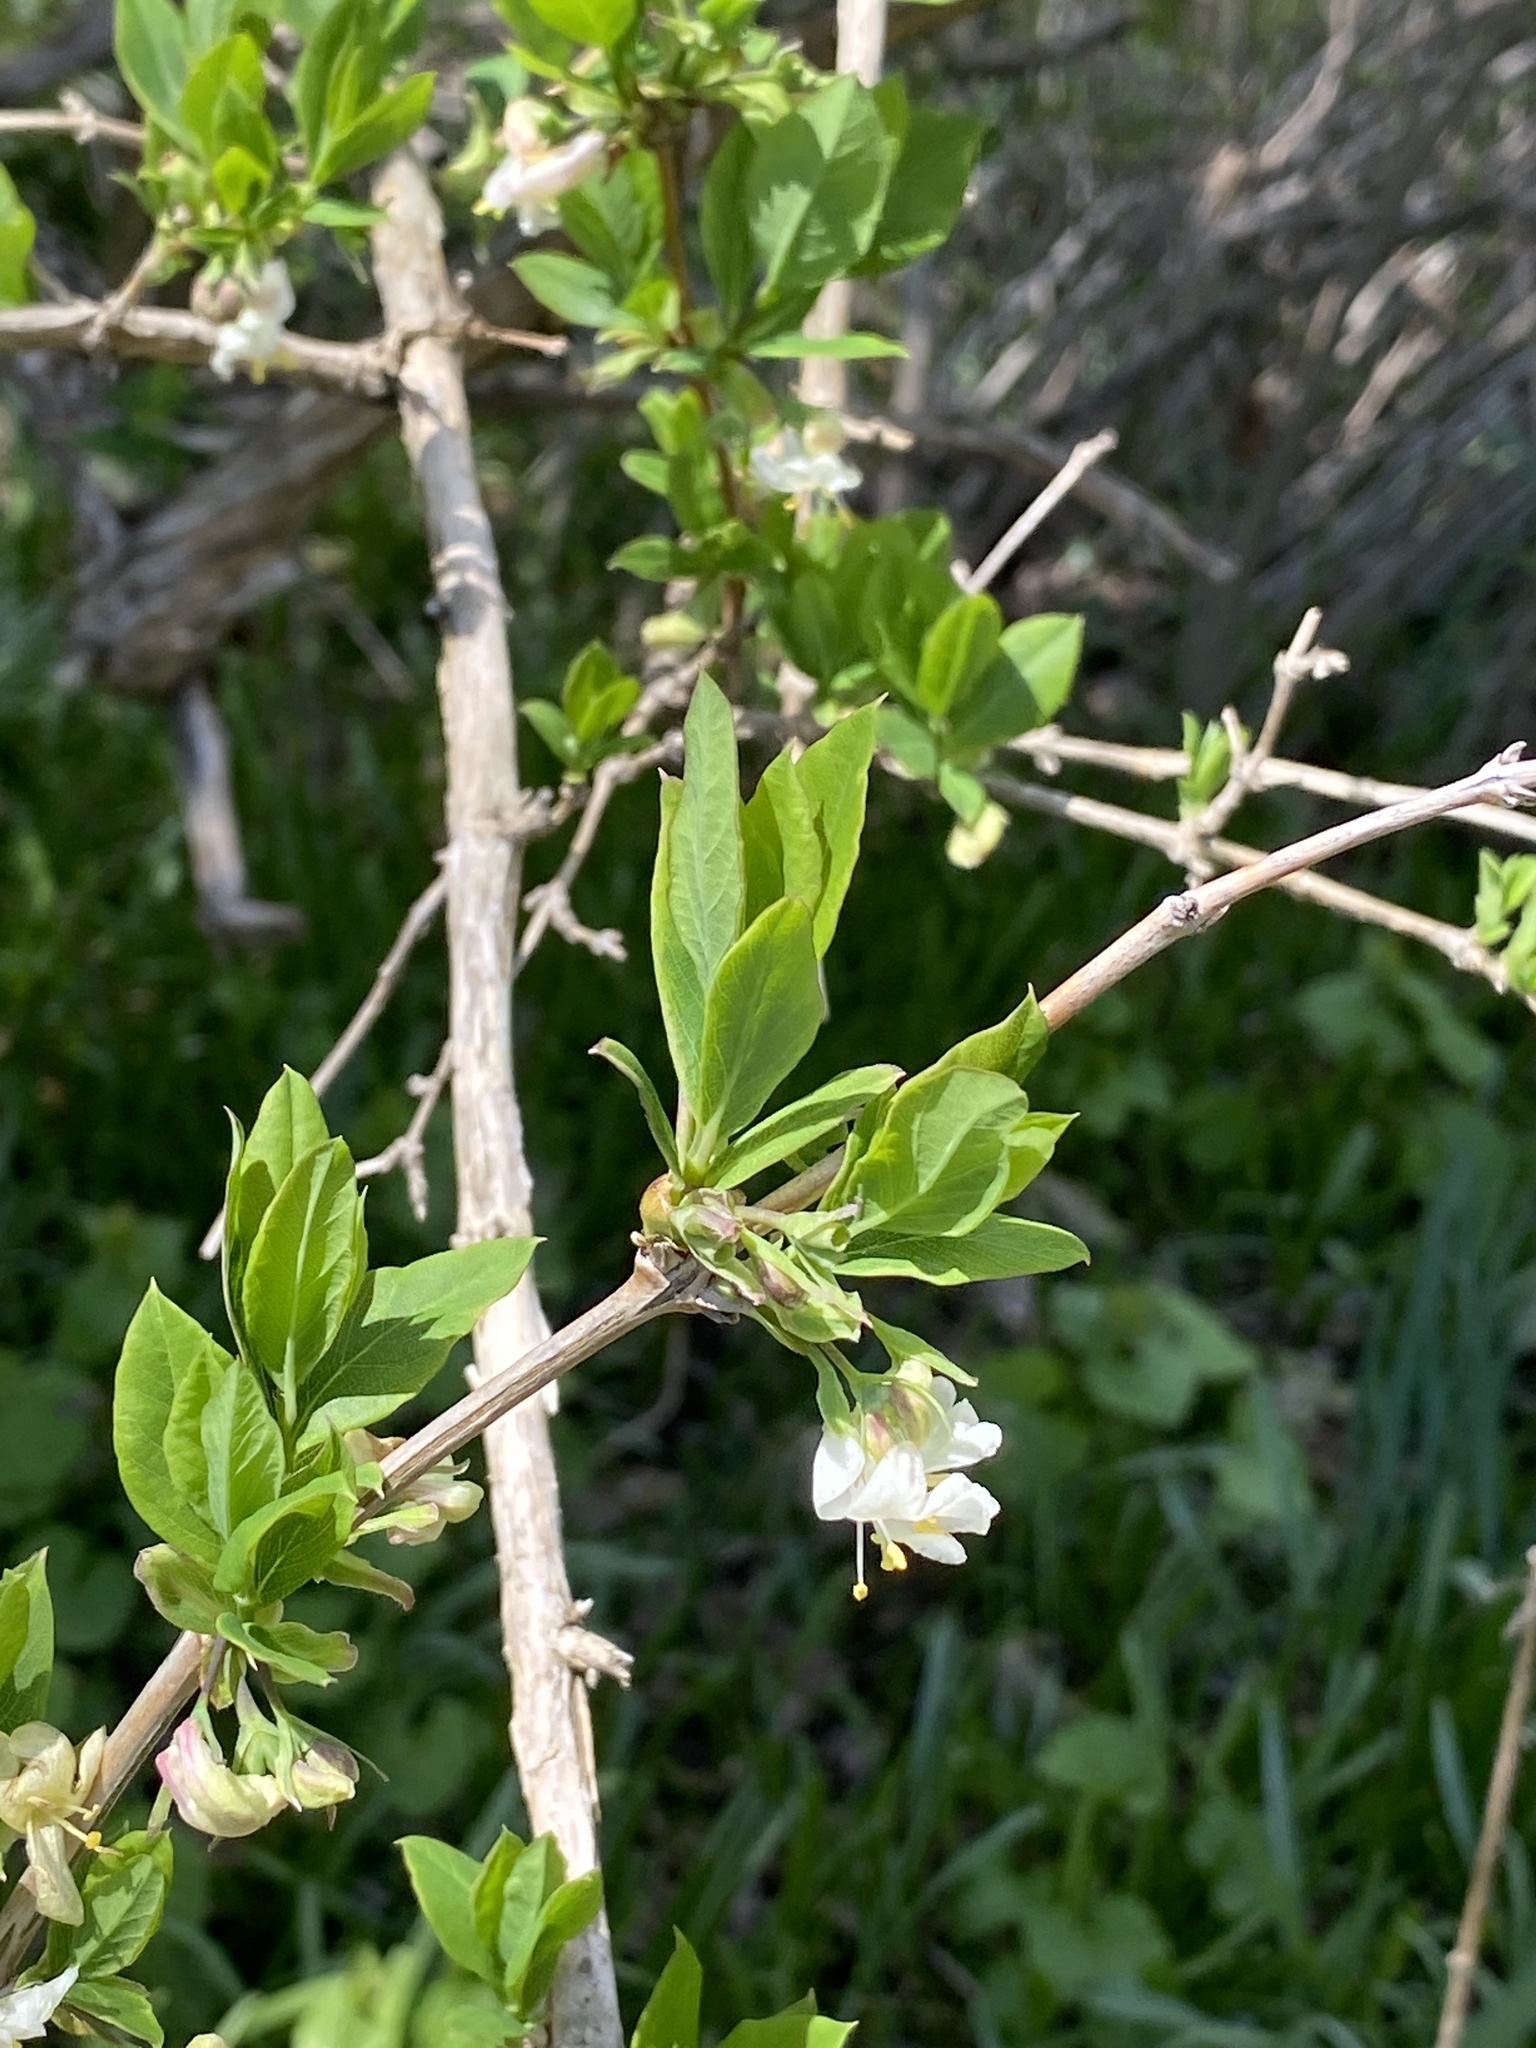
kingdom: Plantae
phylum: Tracheophyta
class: Magnoliopsida
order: Dipsacales
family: Caprifoliaceae
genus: Lonicera
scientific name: Lonicera fragrantissima
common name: Fragrant honeysuckle
